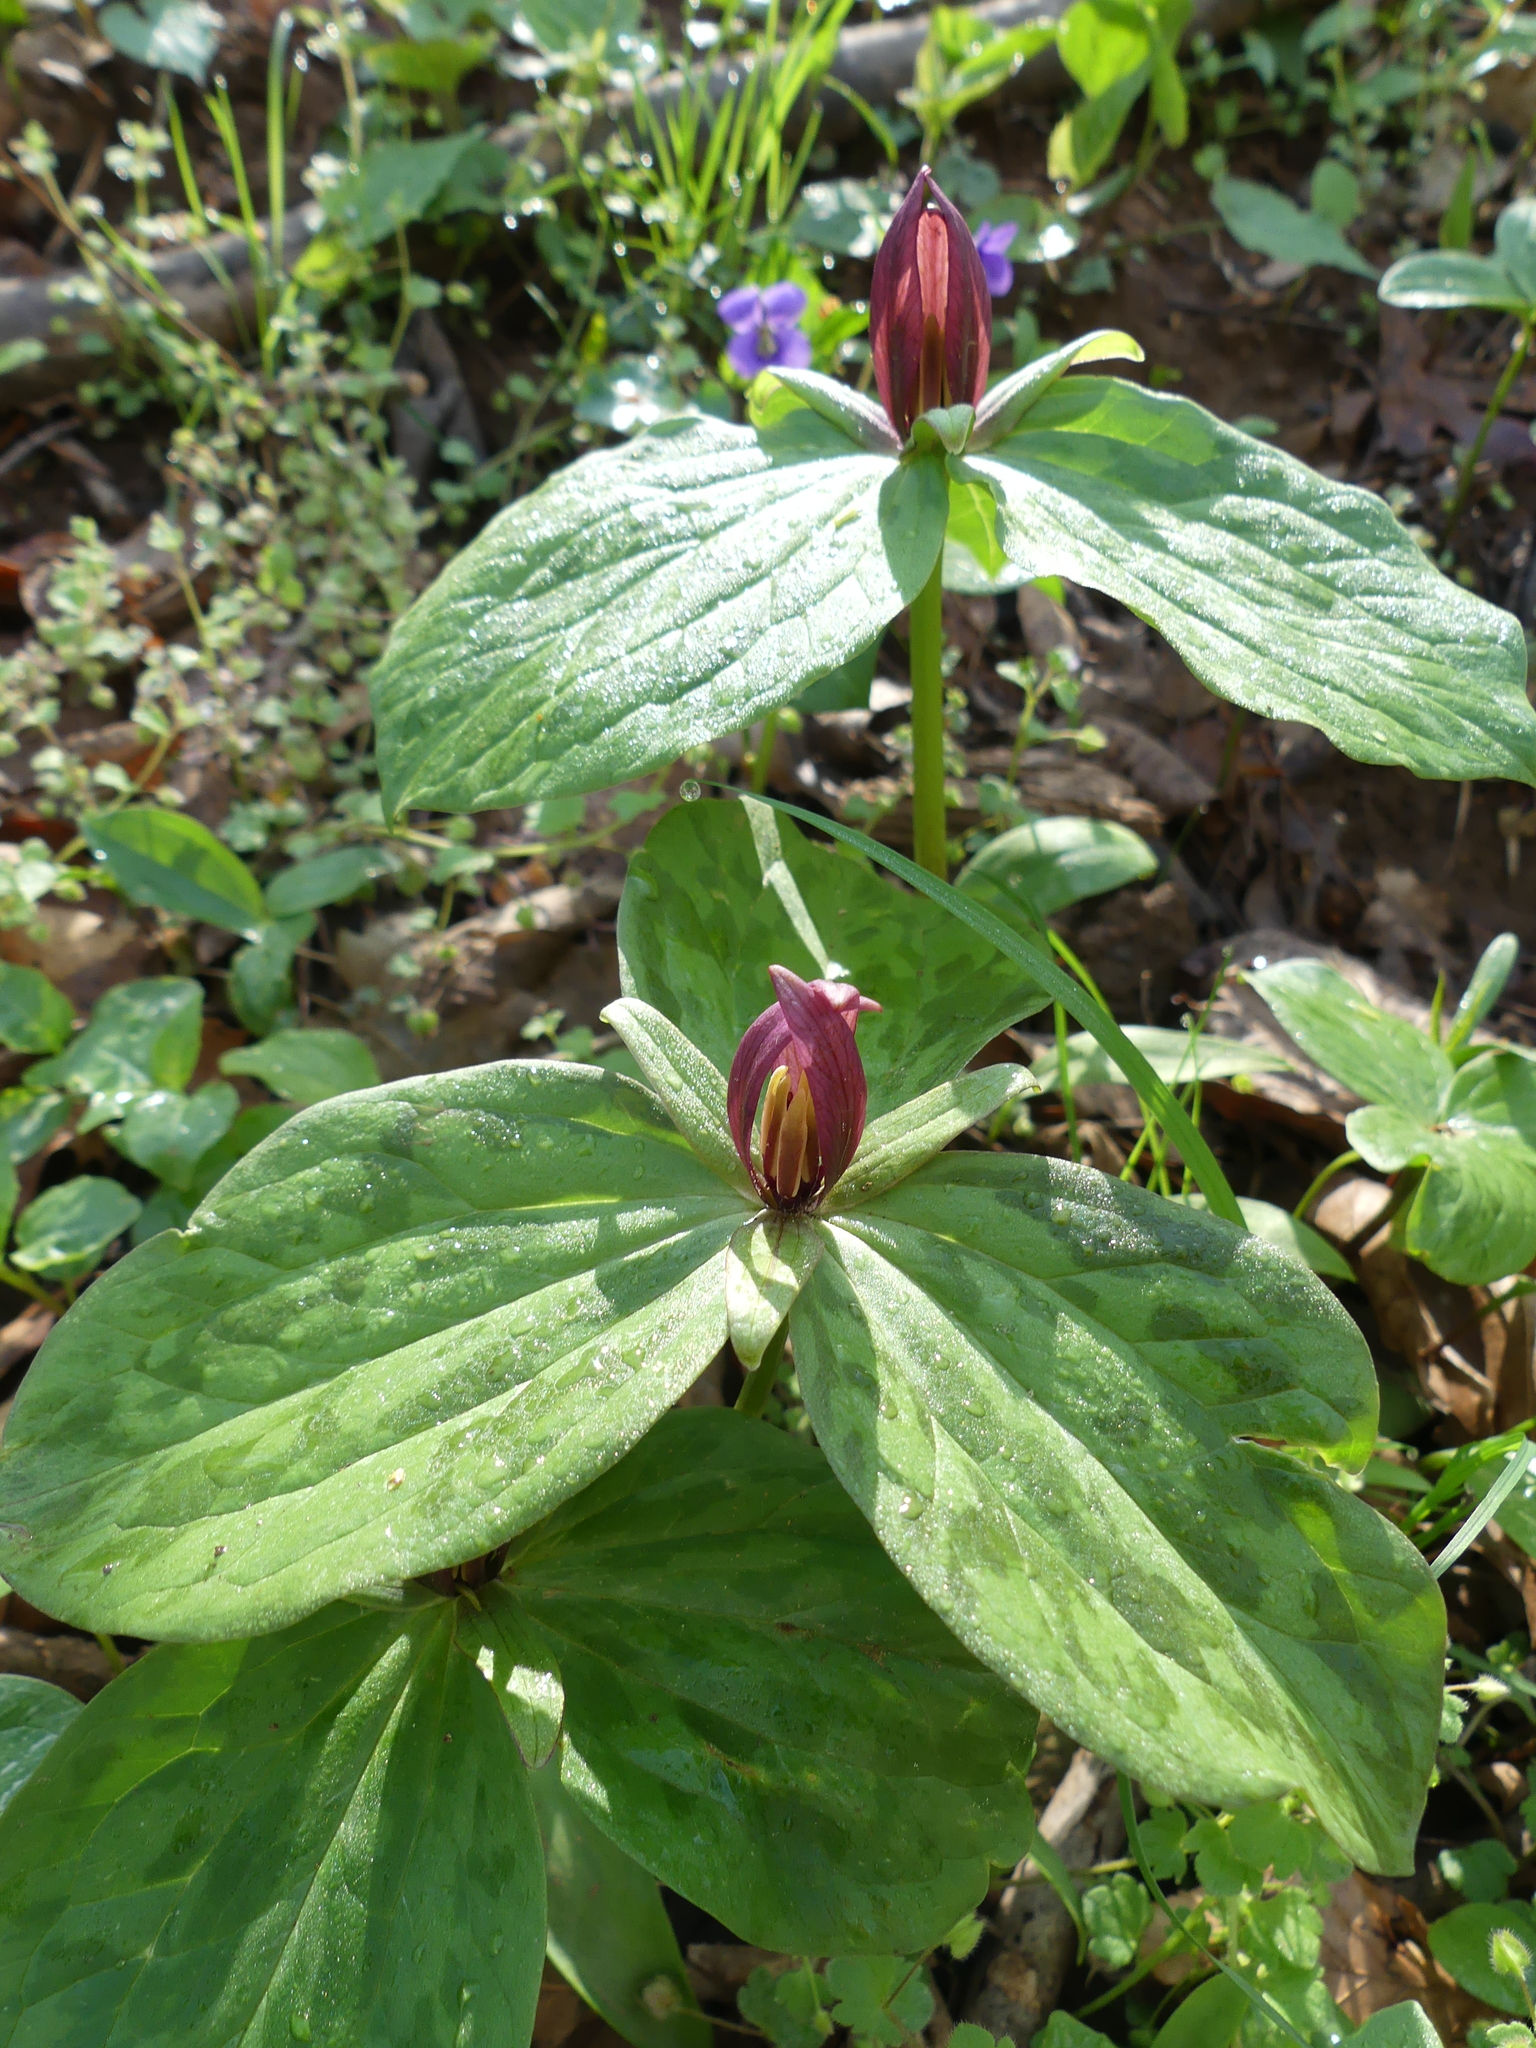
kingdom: Plantae
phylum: Tracheophyta
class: Liliopsida
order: Liliales
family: Melanthiaceae
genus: Trillium
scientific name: Trillium sessile
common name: Sessile trillium
